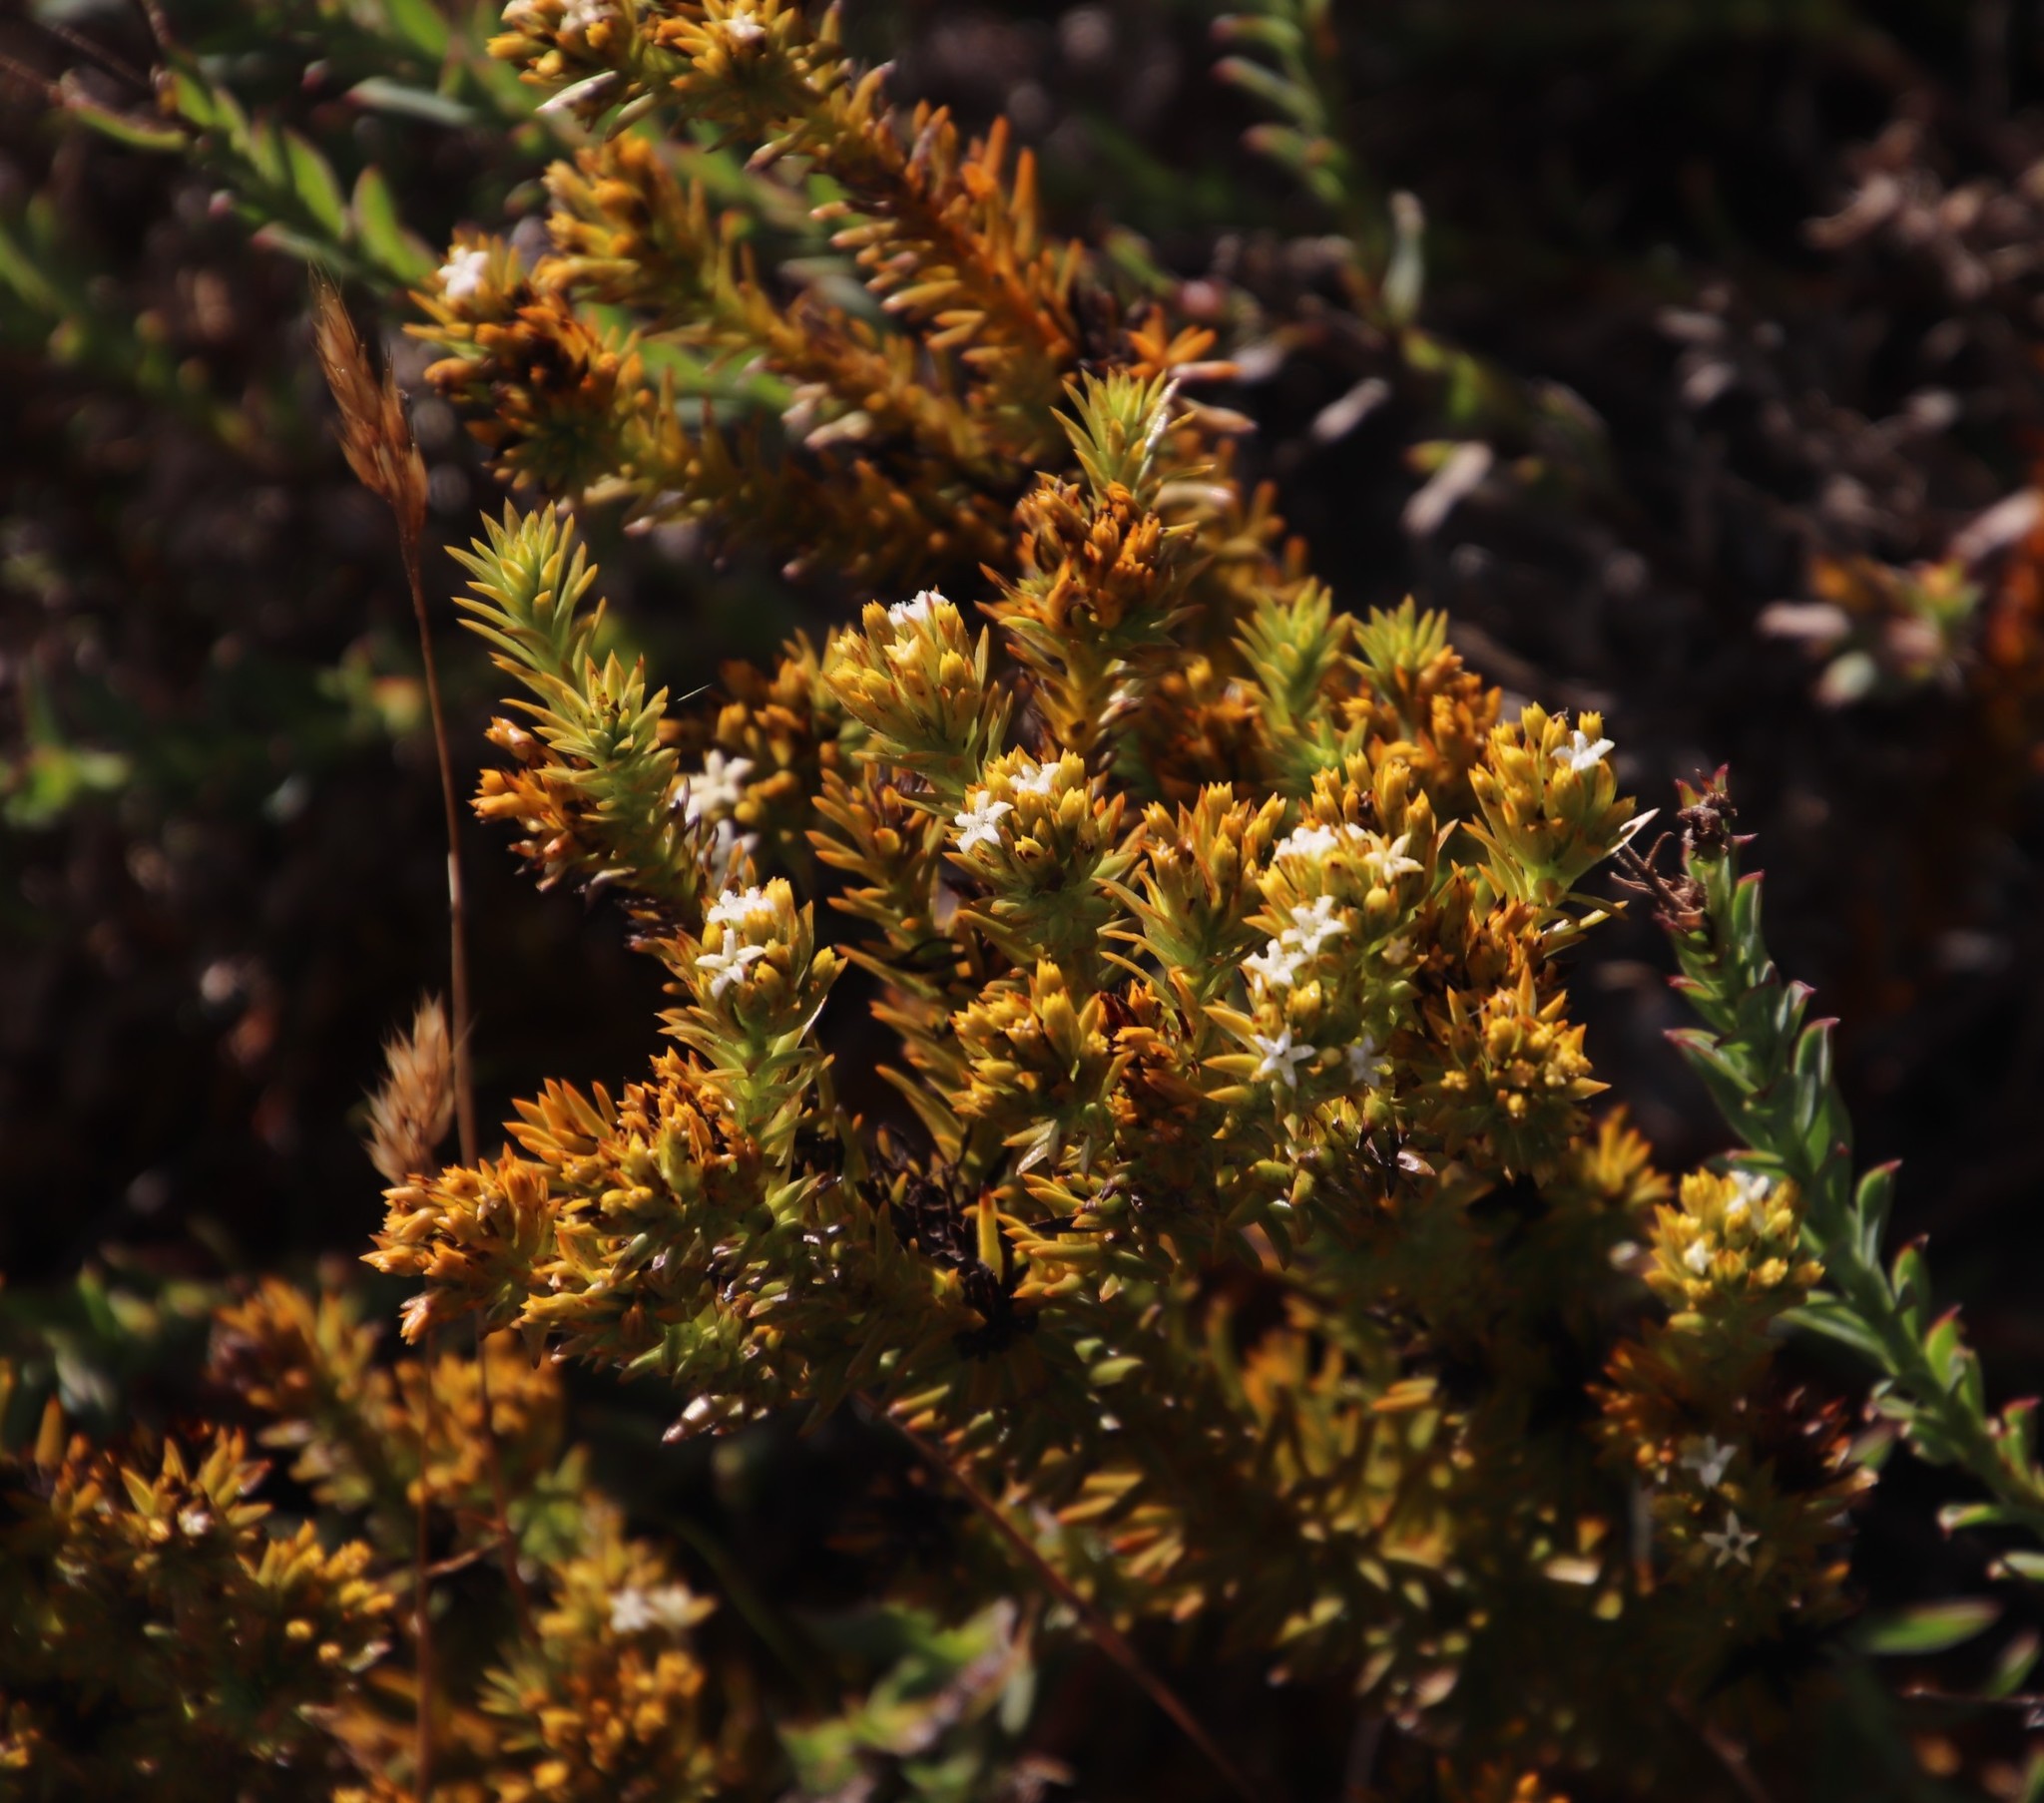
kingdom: Plantae
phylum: Tracheophyta
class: Magnoliopsida
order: Santalales
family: Thesiaceae
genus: Thesium
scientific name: Thesium viridifolium
